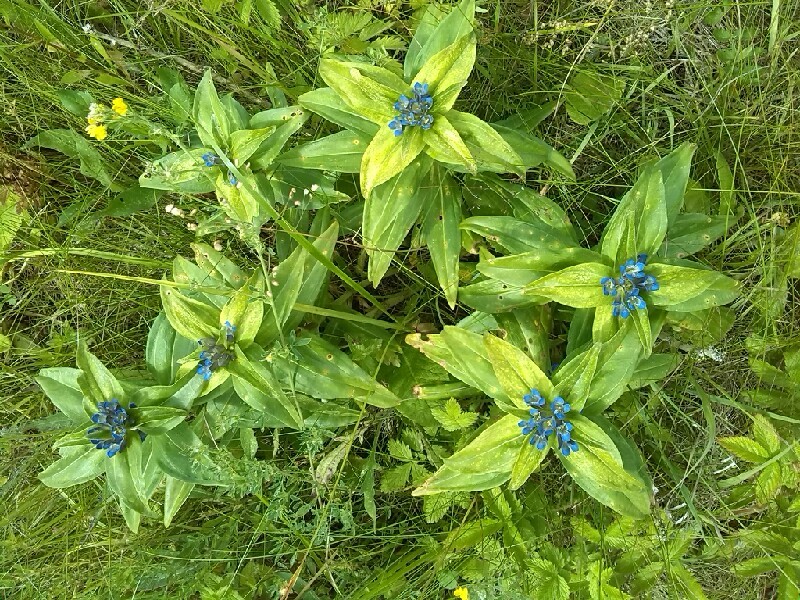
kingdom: Plantae
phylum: Tracheophyta
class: Magnoliopsida
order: Gentianales
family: Gentianaceae
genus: Gentiana
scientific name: Gentiana cruciata
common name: Cross gentian
